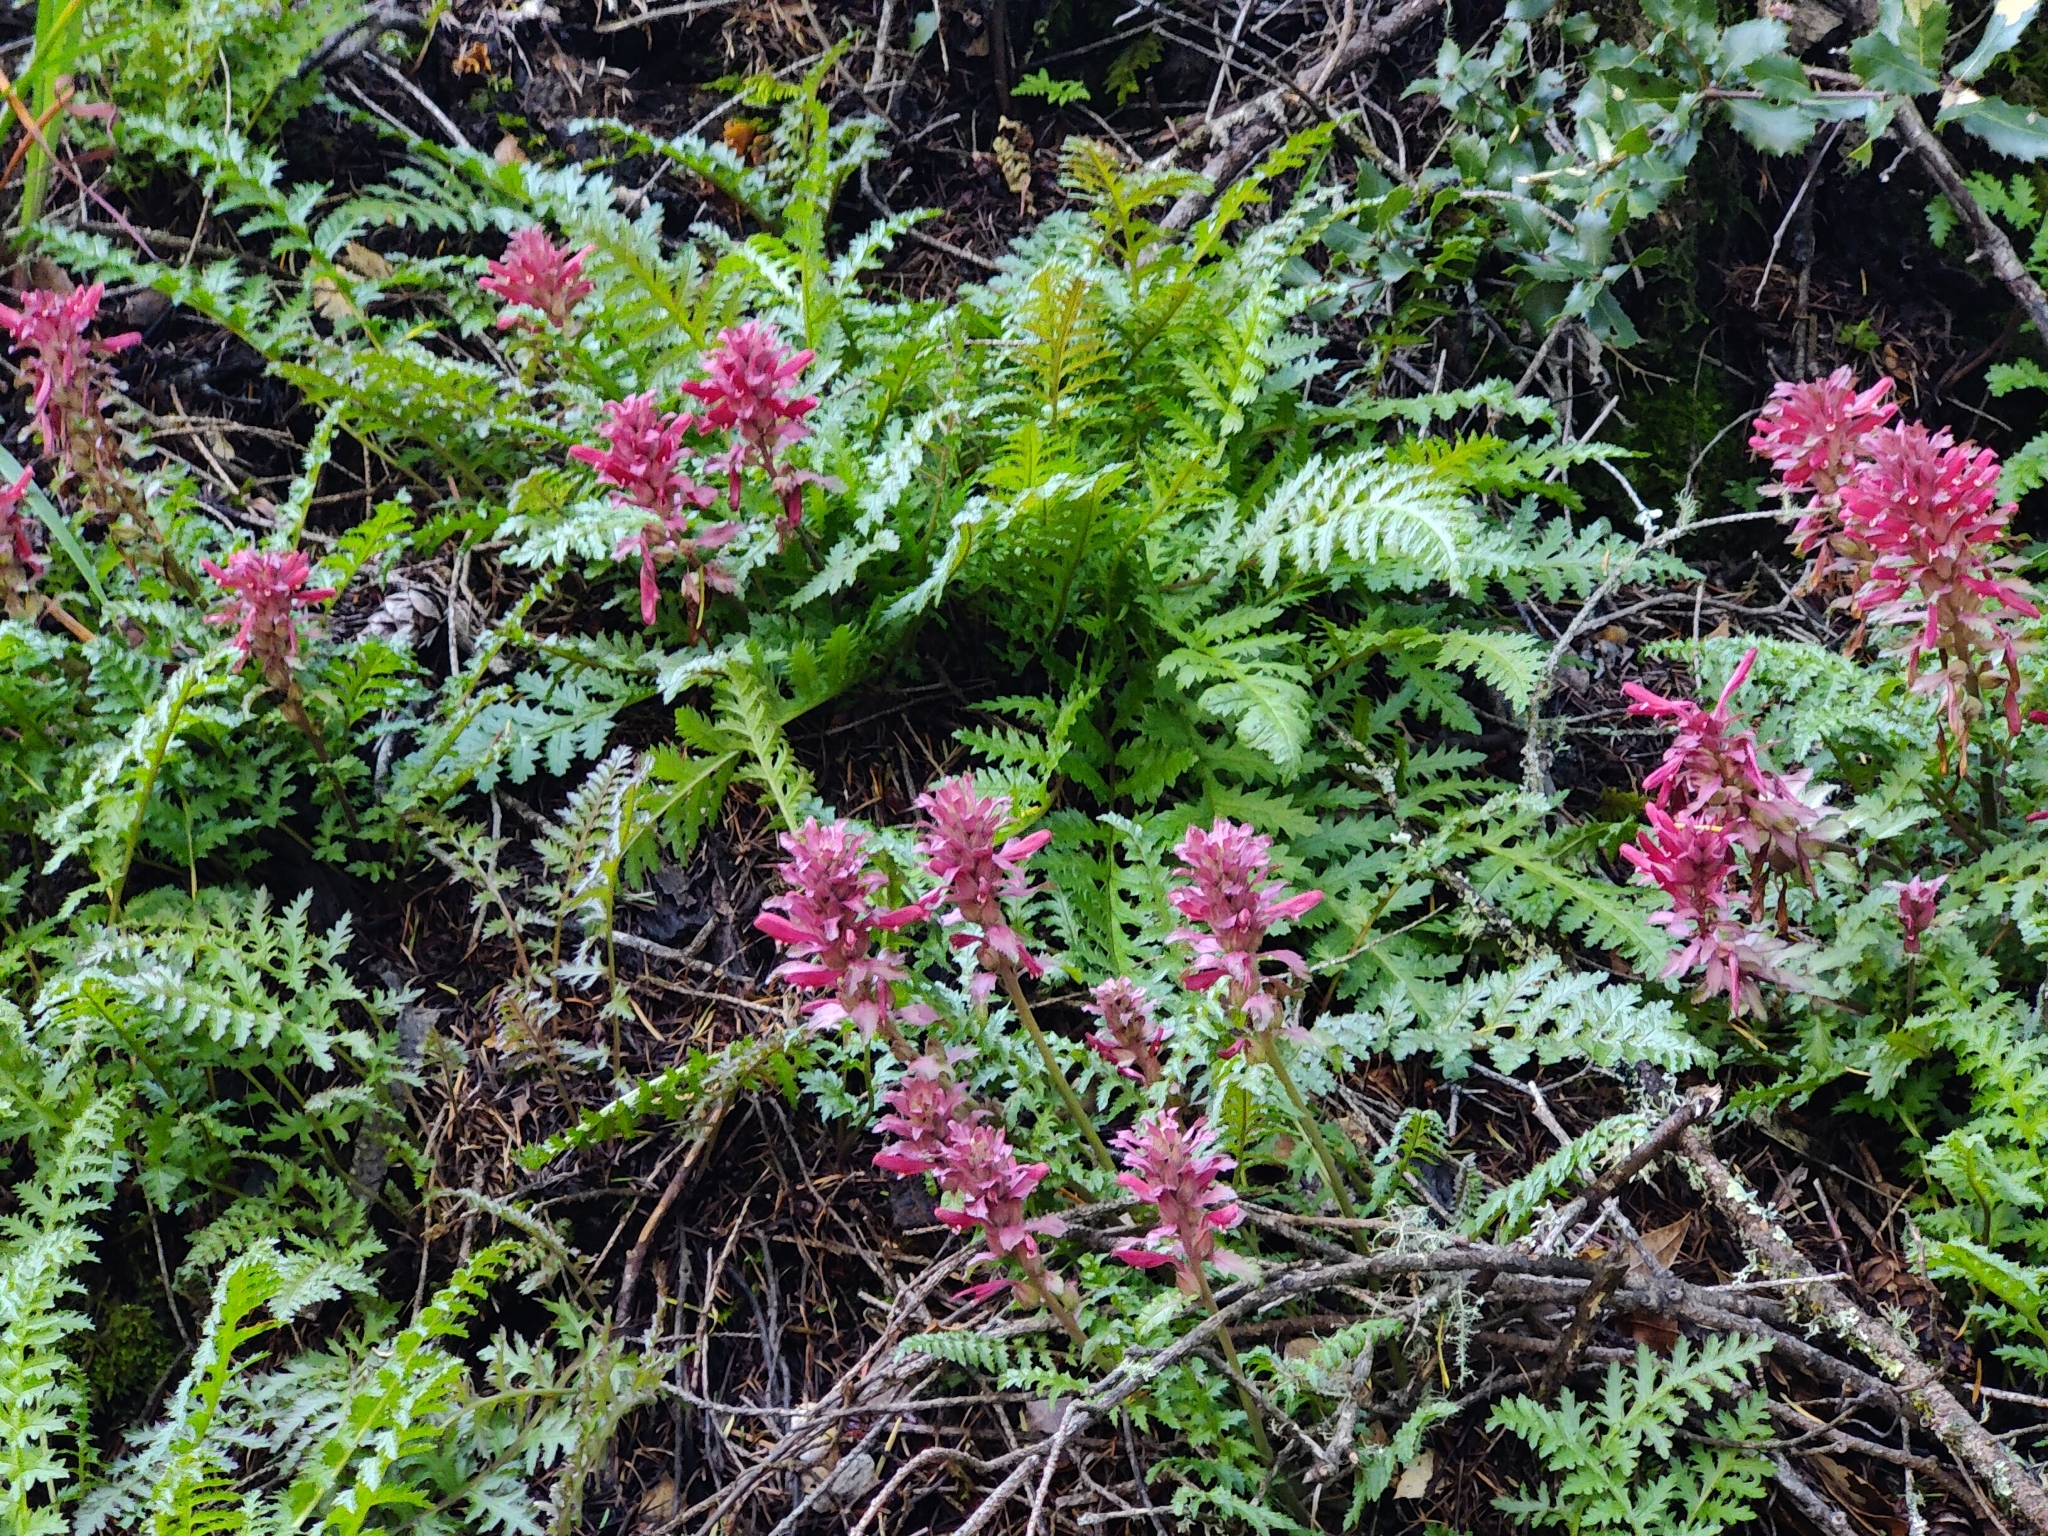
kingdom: Plantae
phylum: Tracheophyta
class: Magnoliopsida
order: Lamiales
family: Orobanchaceae
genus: Pedicularis
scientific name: Pedicularis densiflora
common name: Indian warrior
